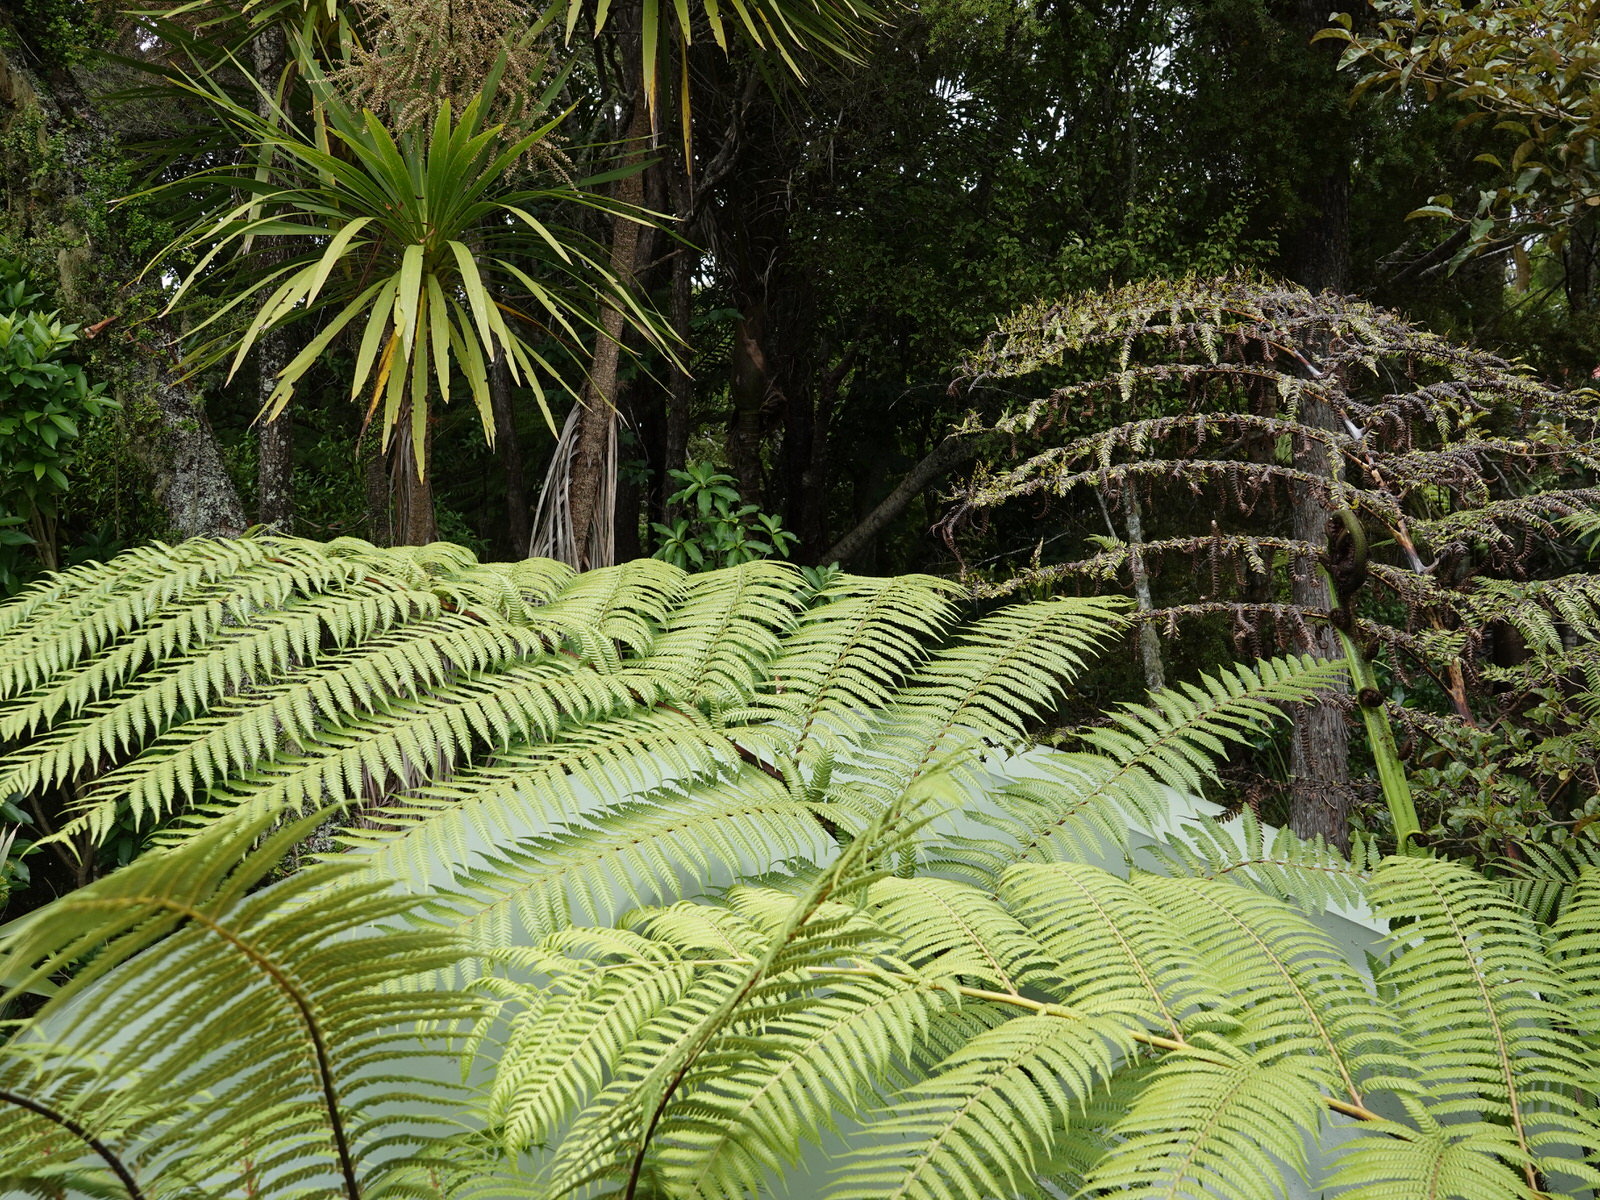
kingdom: Plantae
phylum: Tracheophyta
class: Polypodiopsida
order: Cyatheales
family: Cyatheaceae
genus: Sphaeropteris
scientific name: Sphaeropteris medullaris
